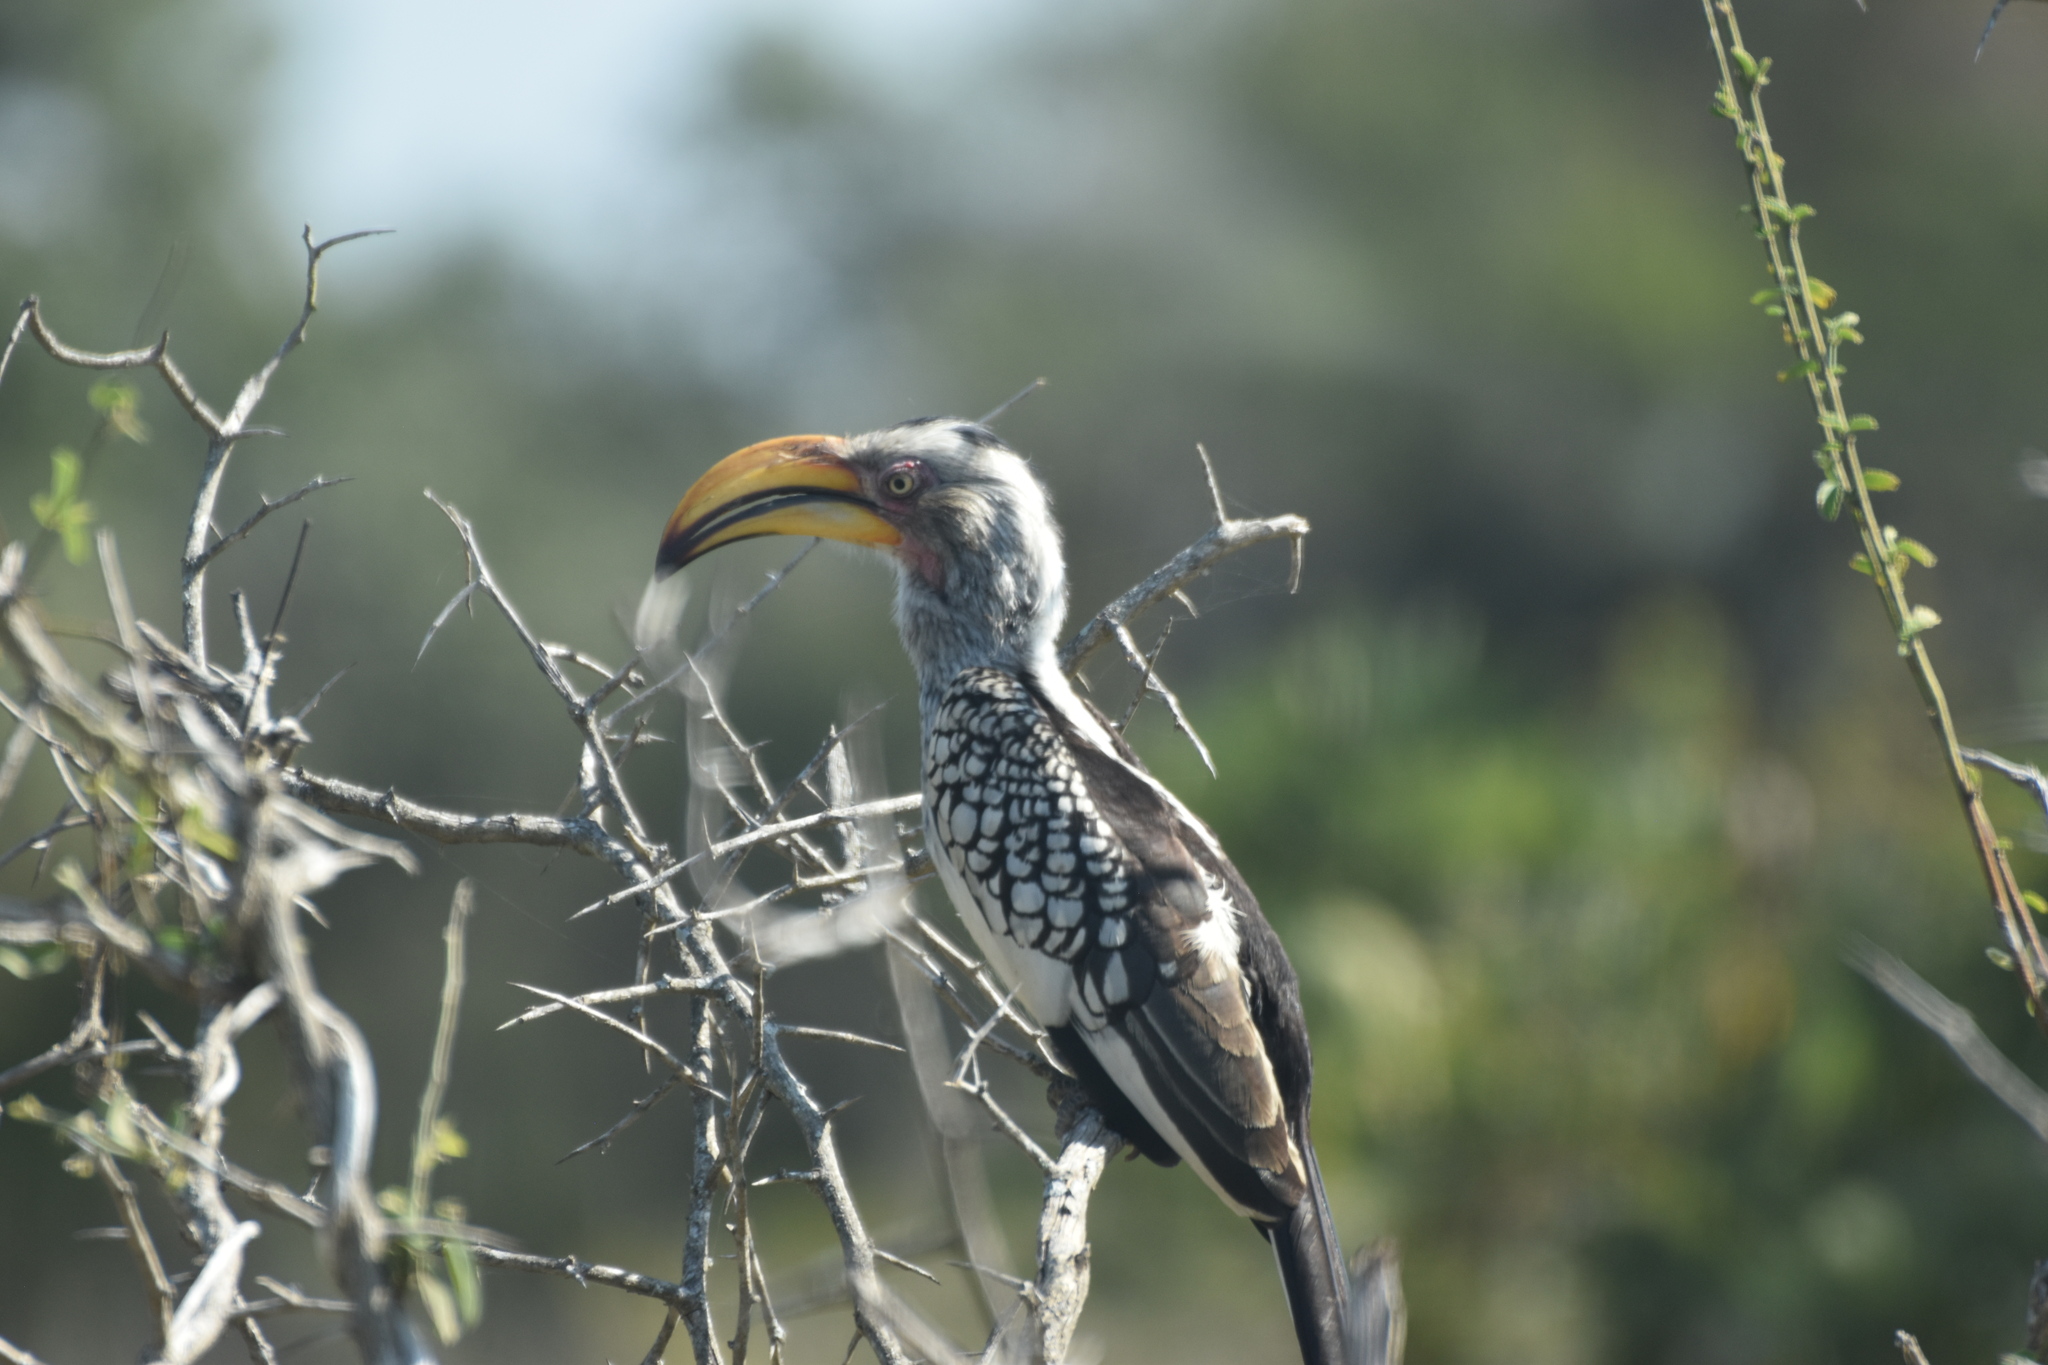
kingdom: Animalia
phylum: Chordata
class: Aves
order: Bucerotiformes
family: Bucerotidae
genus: Tockus
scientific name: Tockus leucomelas
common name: Southern yellow-billed hornbill
